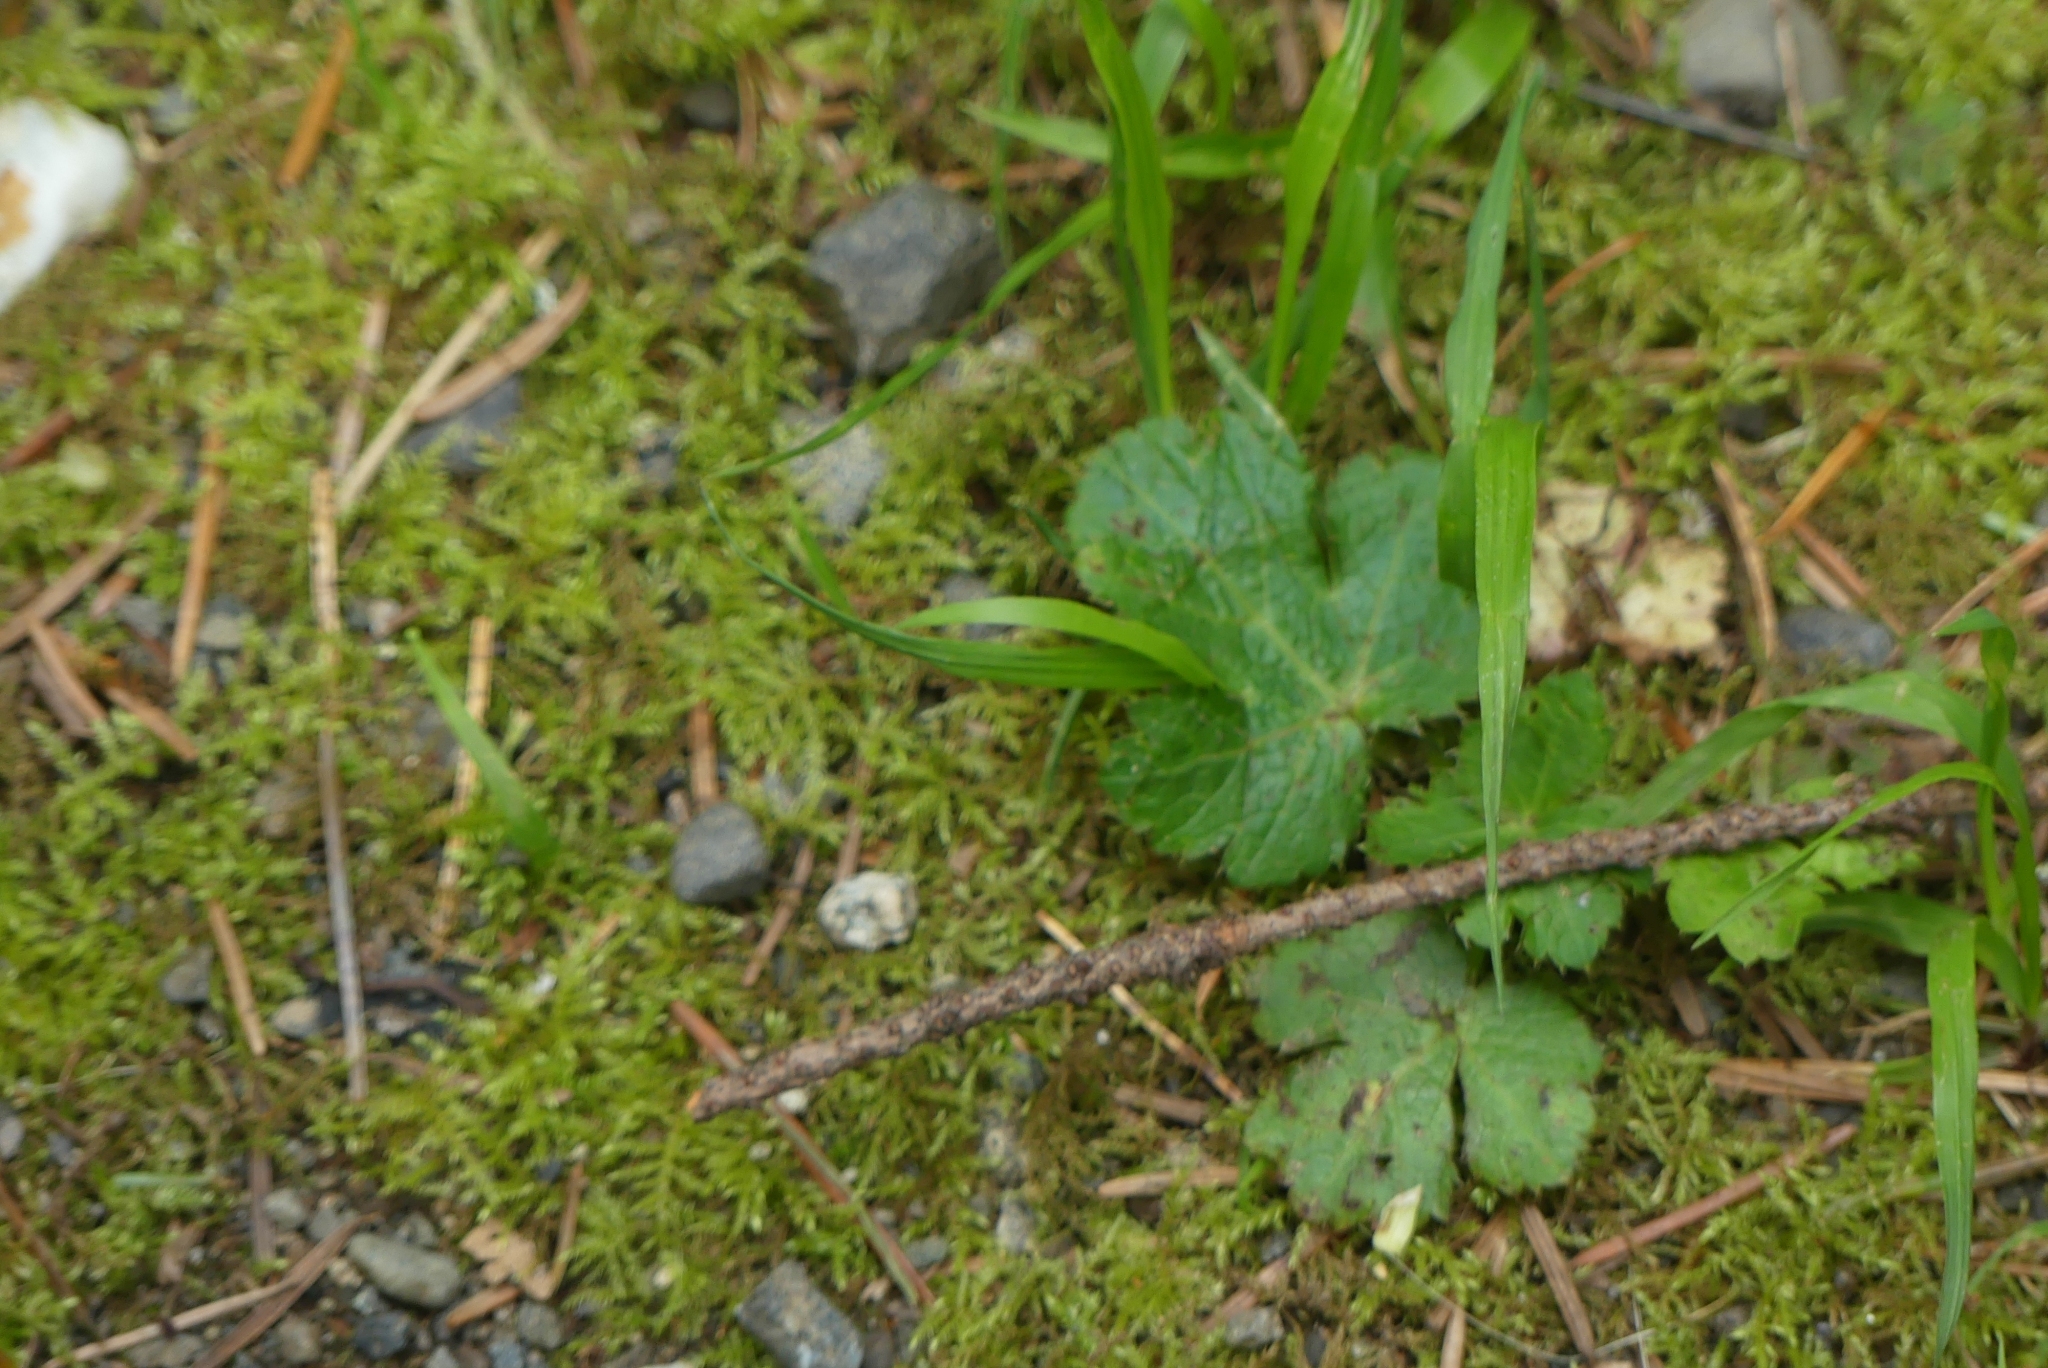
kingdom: Plantae
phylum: Tracheophyta
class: Magnoliopsida
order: Apiales
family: Apiaceae
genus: Sanicula
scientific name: Sanicula crassicaulis
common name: Western snakeroot
